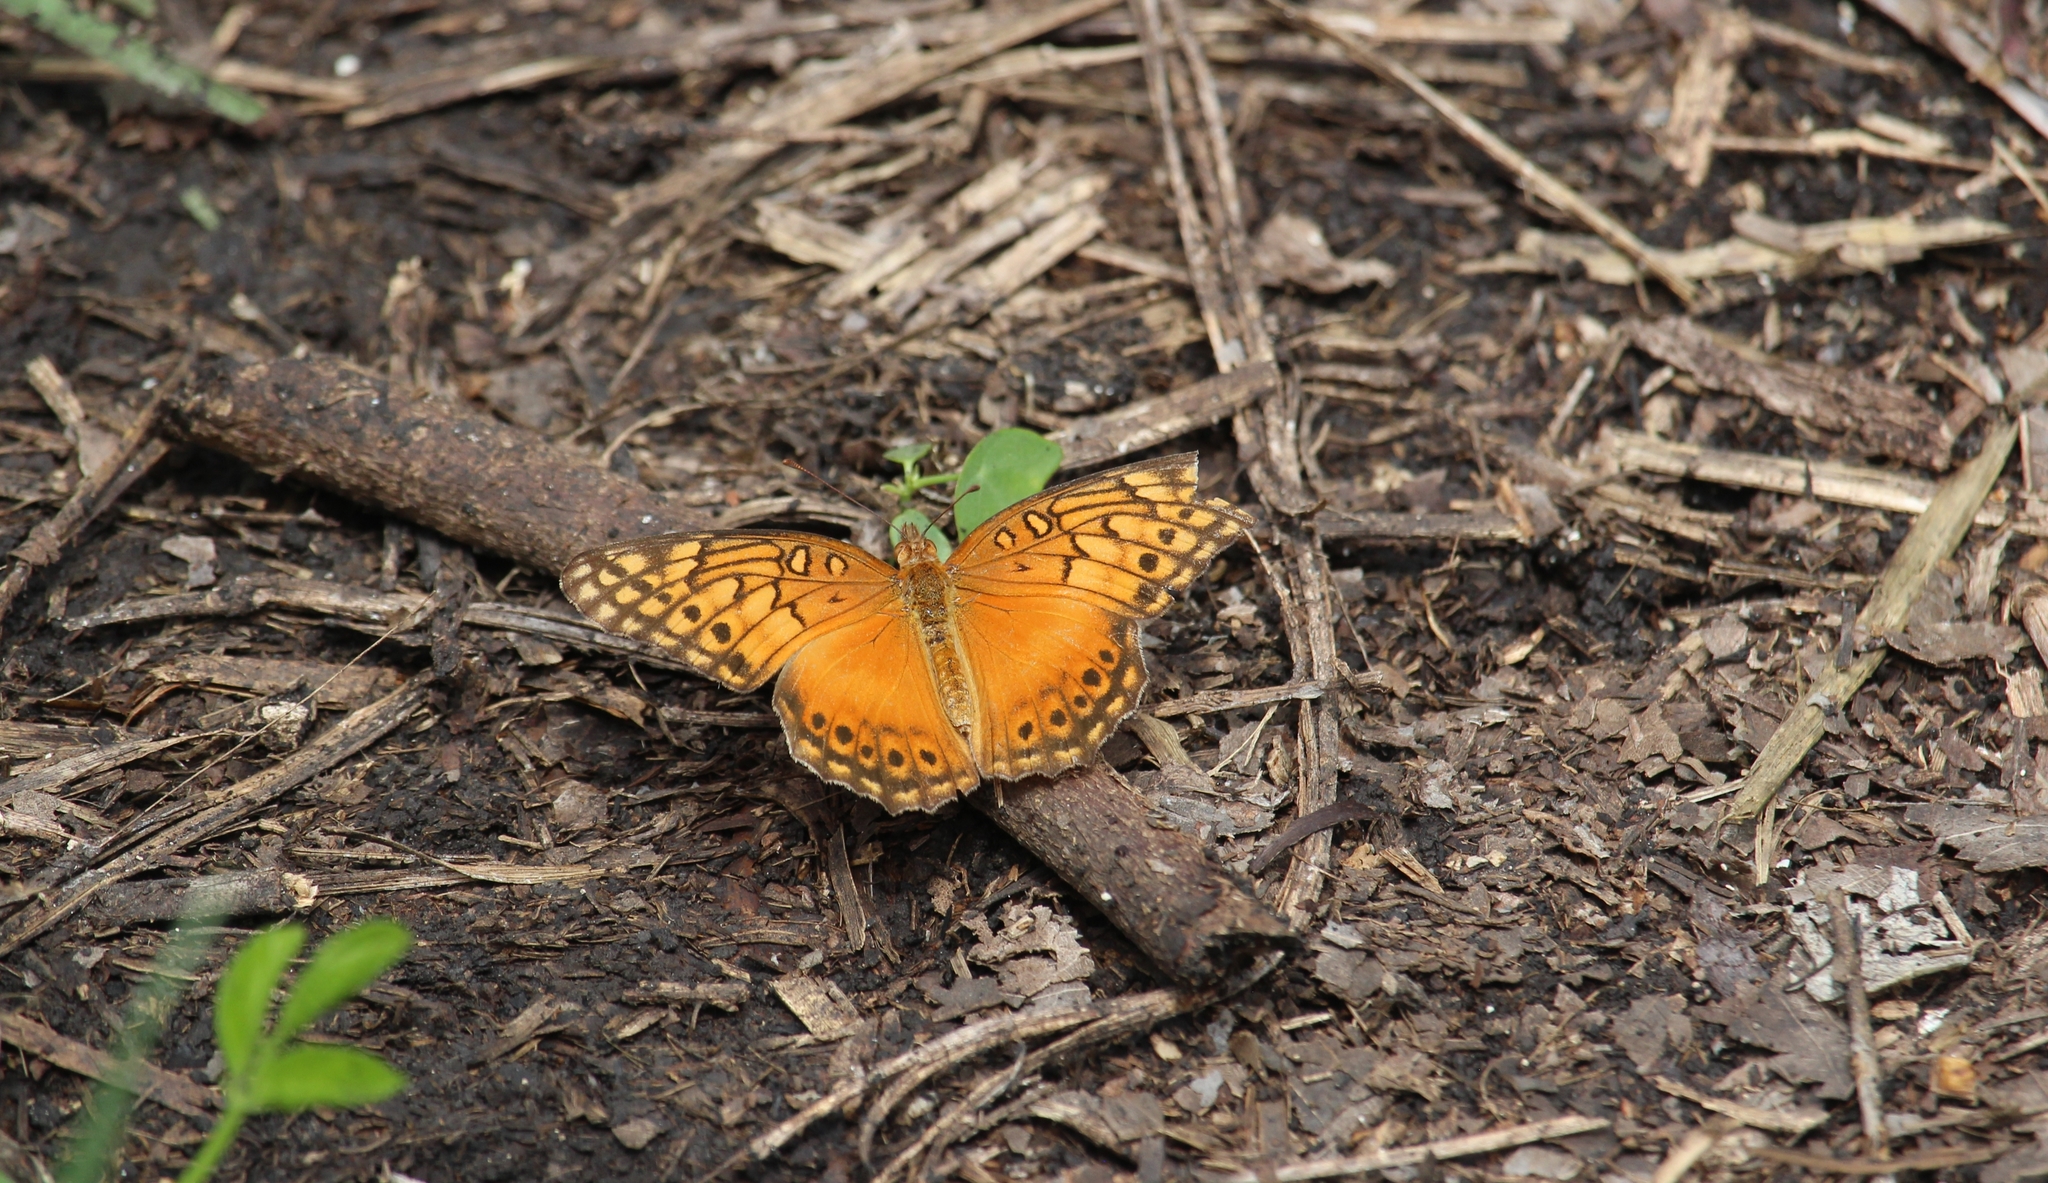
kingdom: Animalia
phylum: Arthropoda
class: Insecta
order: Lepidoptera
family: Nymphalidae
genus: Euptoieta
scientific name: Euptoieta hegesia
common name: Mexican fritillary
